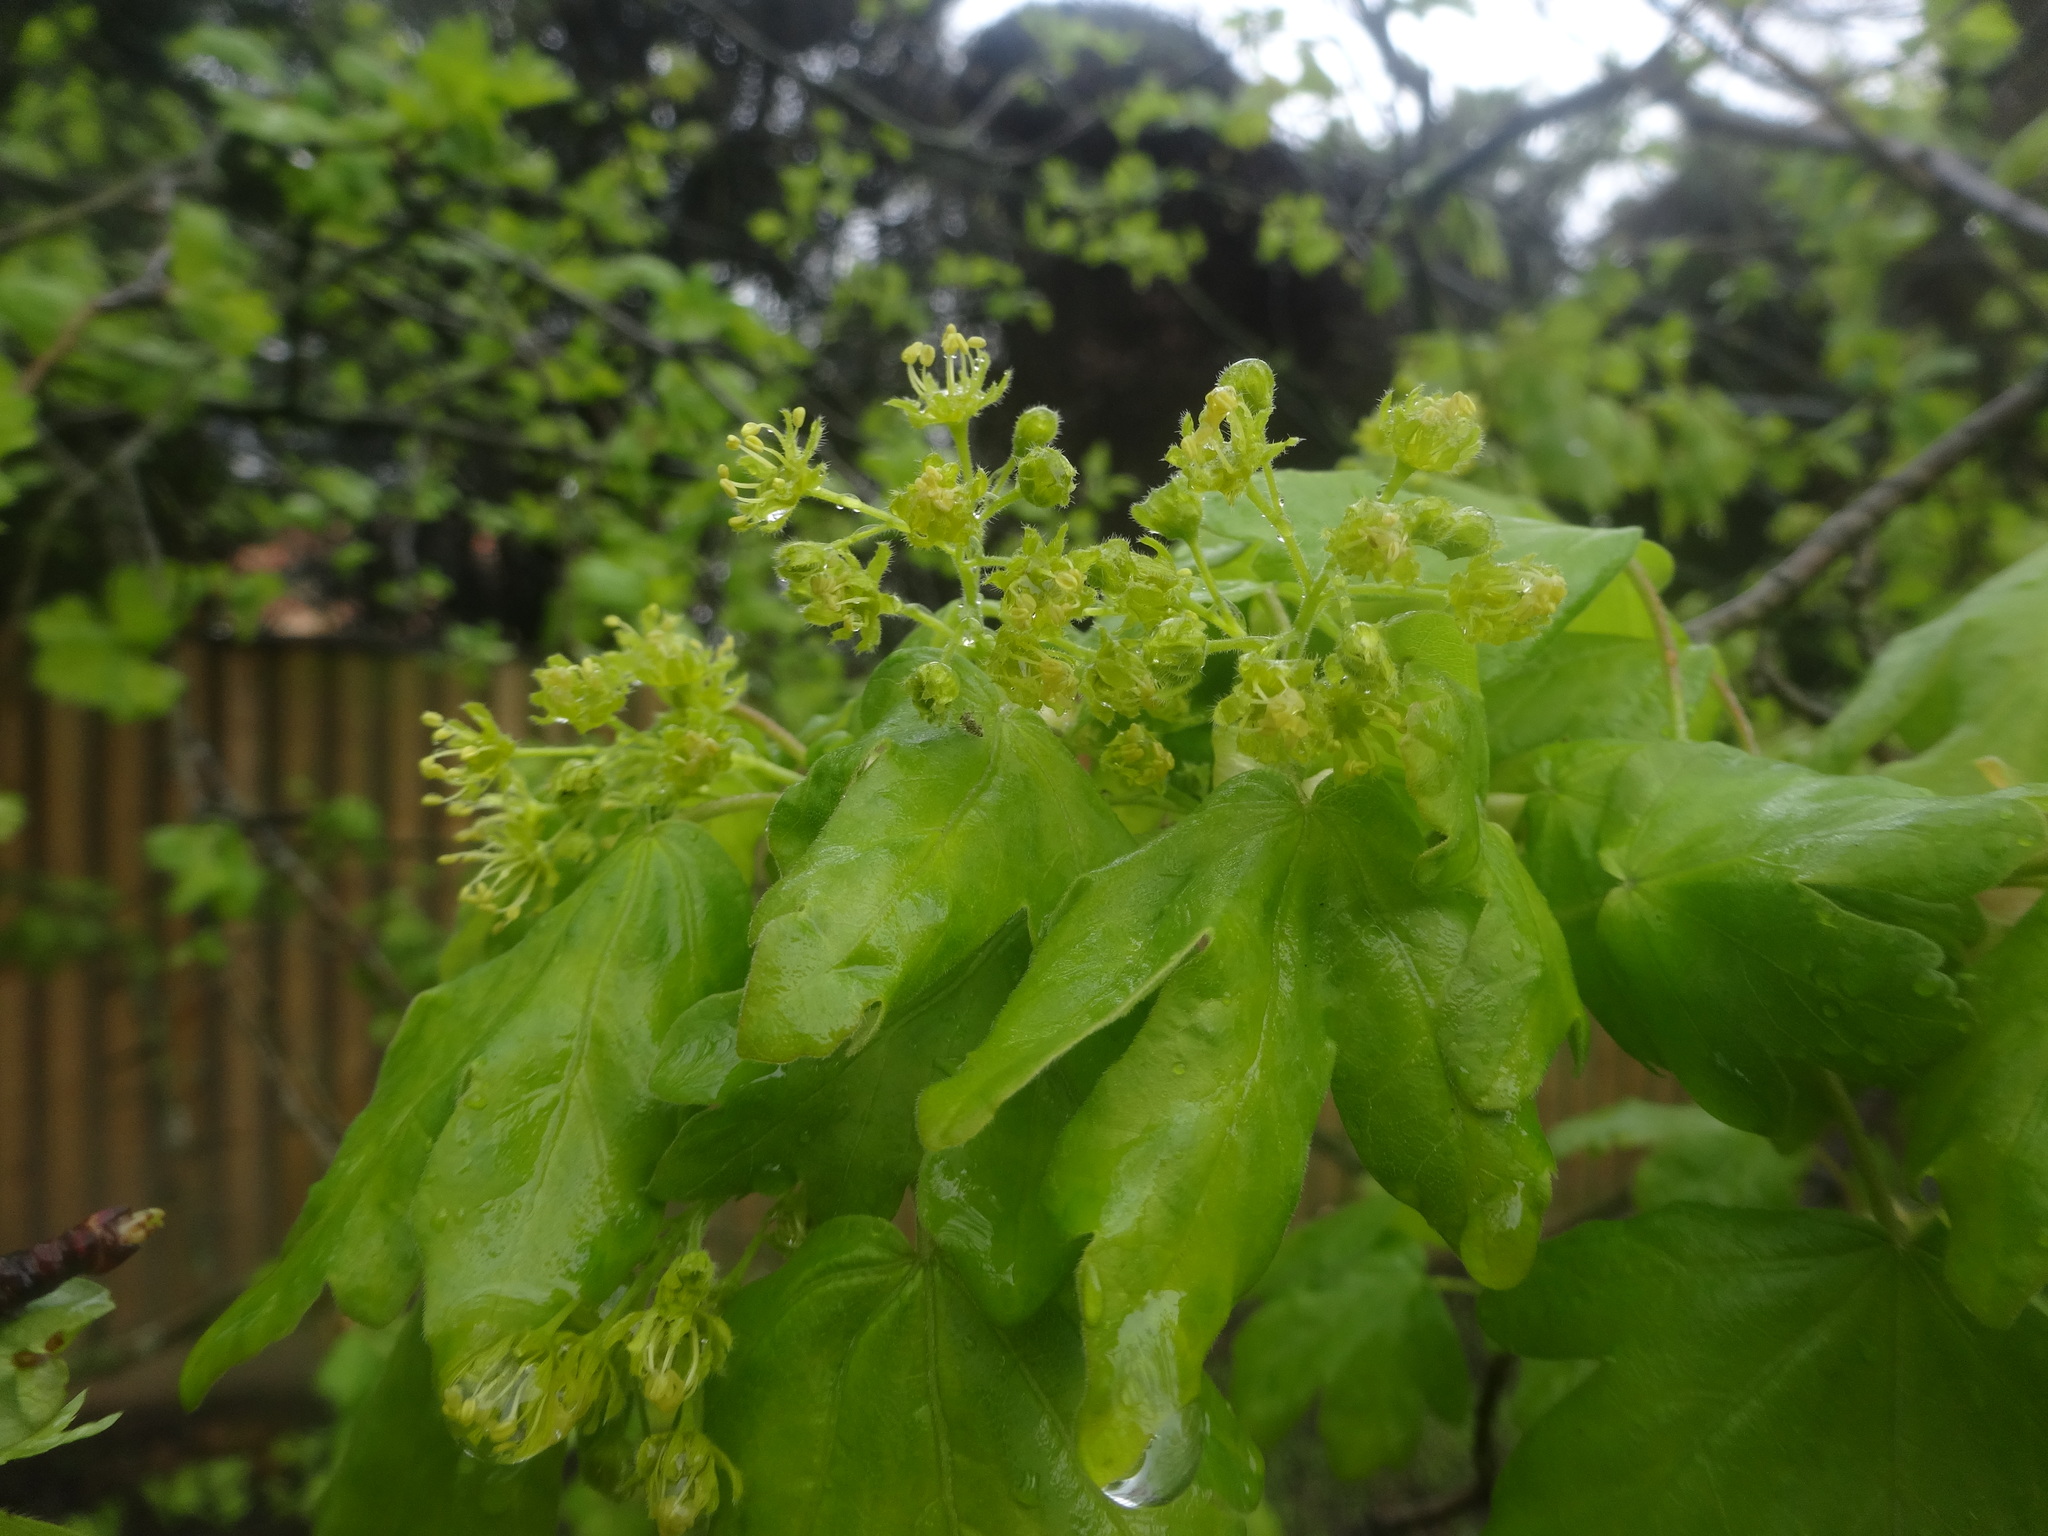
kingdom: Plantae
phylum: Tracheophyta
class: Magnoliopsida
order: Sapindales
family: Sapindaceae
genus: Acer
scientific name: Acer campestre
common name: Field maple
